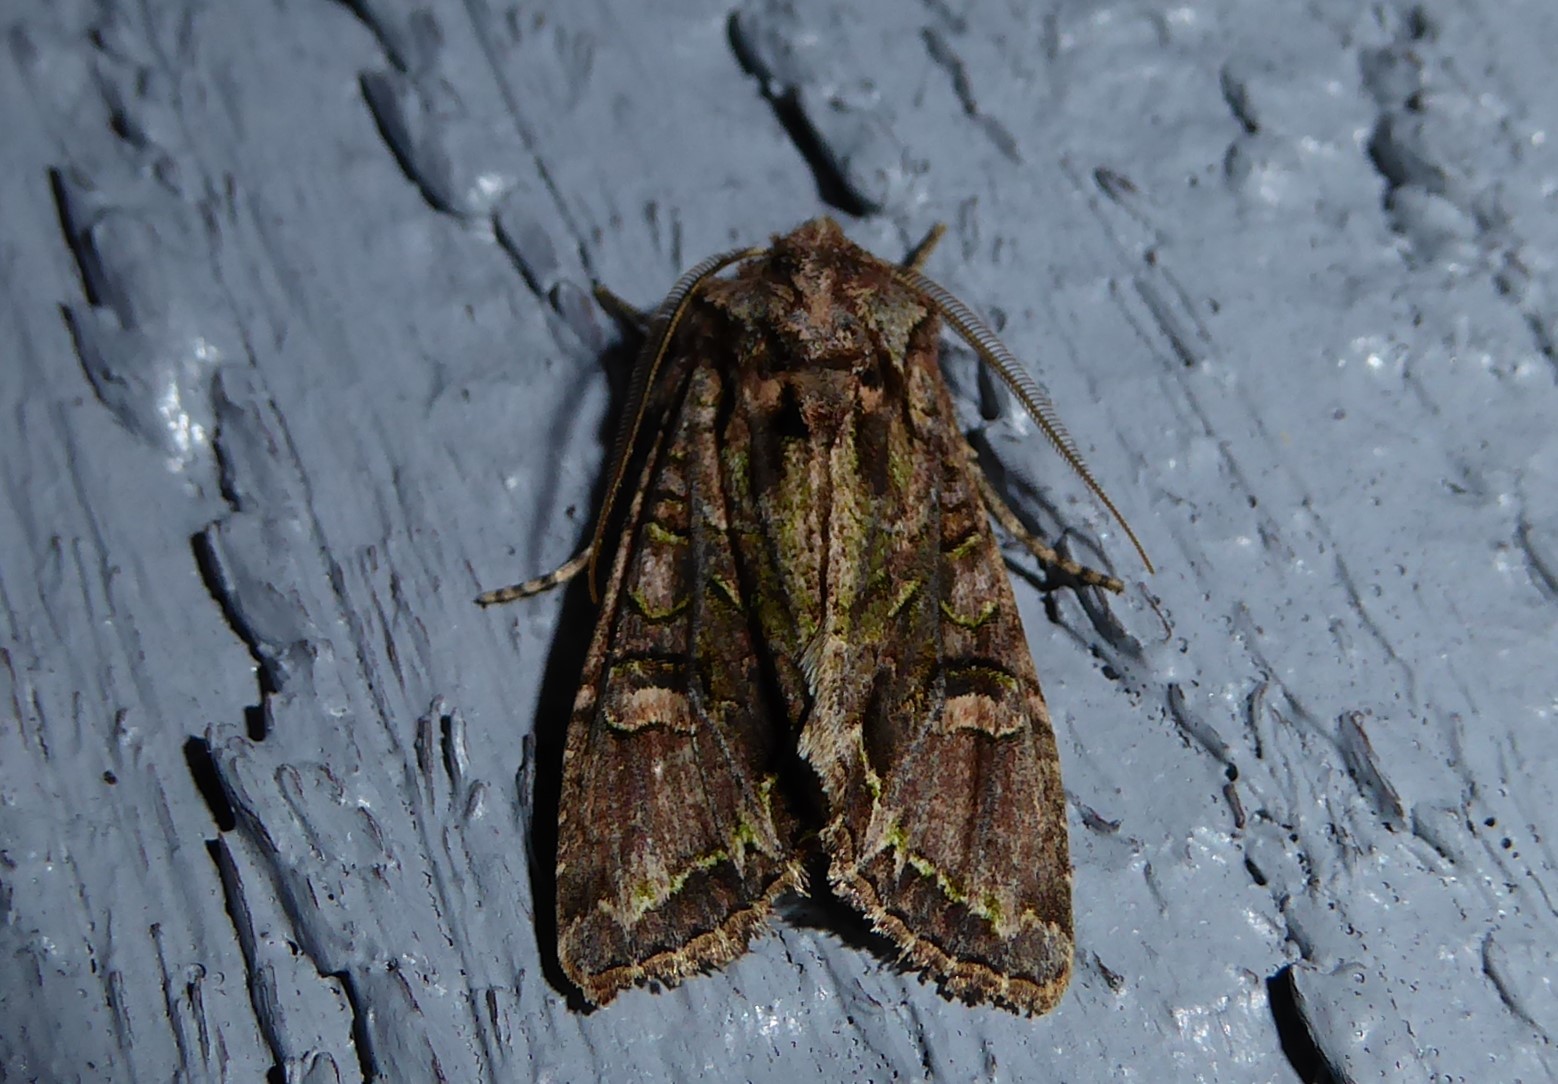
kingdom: Animalia
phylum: Arthropoda
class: Insecta
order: Lepidoptera
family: Noctuidae
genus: Ichneutica
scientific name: Ichneutica insignis
